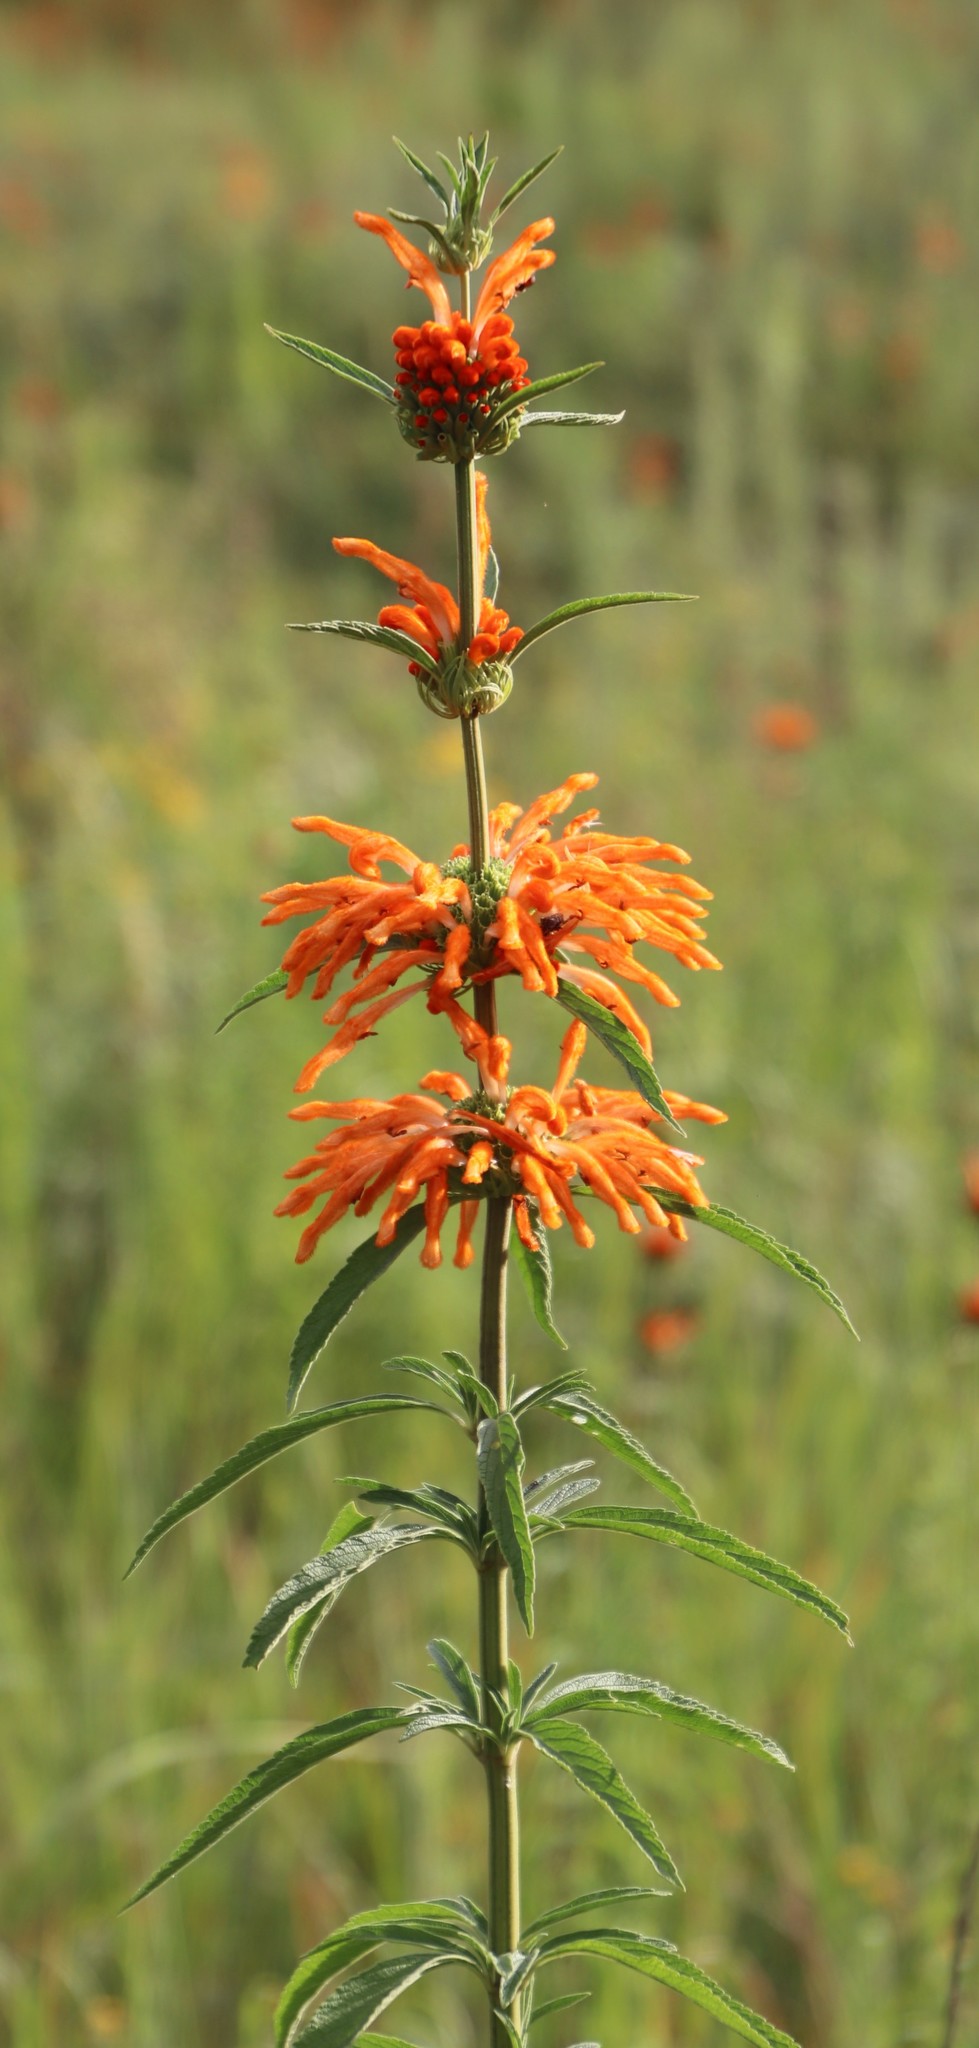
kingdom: Plantae
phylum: Tracheophyta
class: Magnoliopsida
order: Lamiales
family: Lamiaceae
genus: Leonotis
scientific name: Leonotis leonurus
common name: Lion's ear
